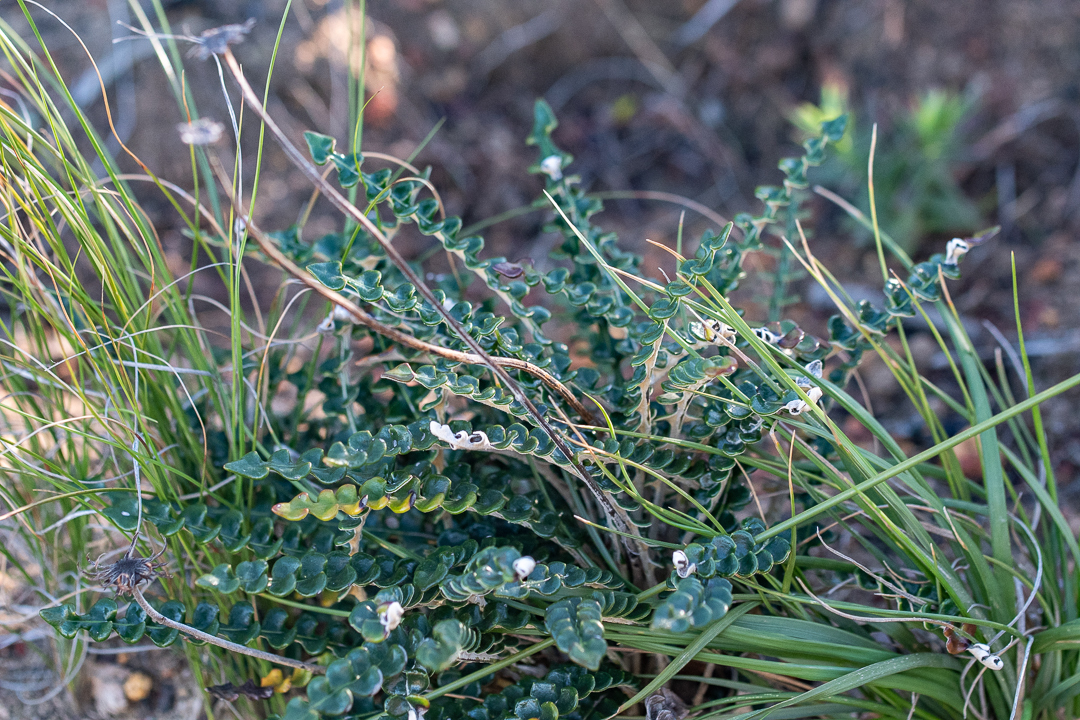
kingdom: Plantae
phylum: Tracheophyta
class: Magnoliopsida
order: Asterales
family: Asteraceae
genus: Gerbera
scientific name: Gerbera linnaei
